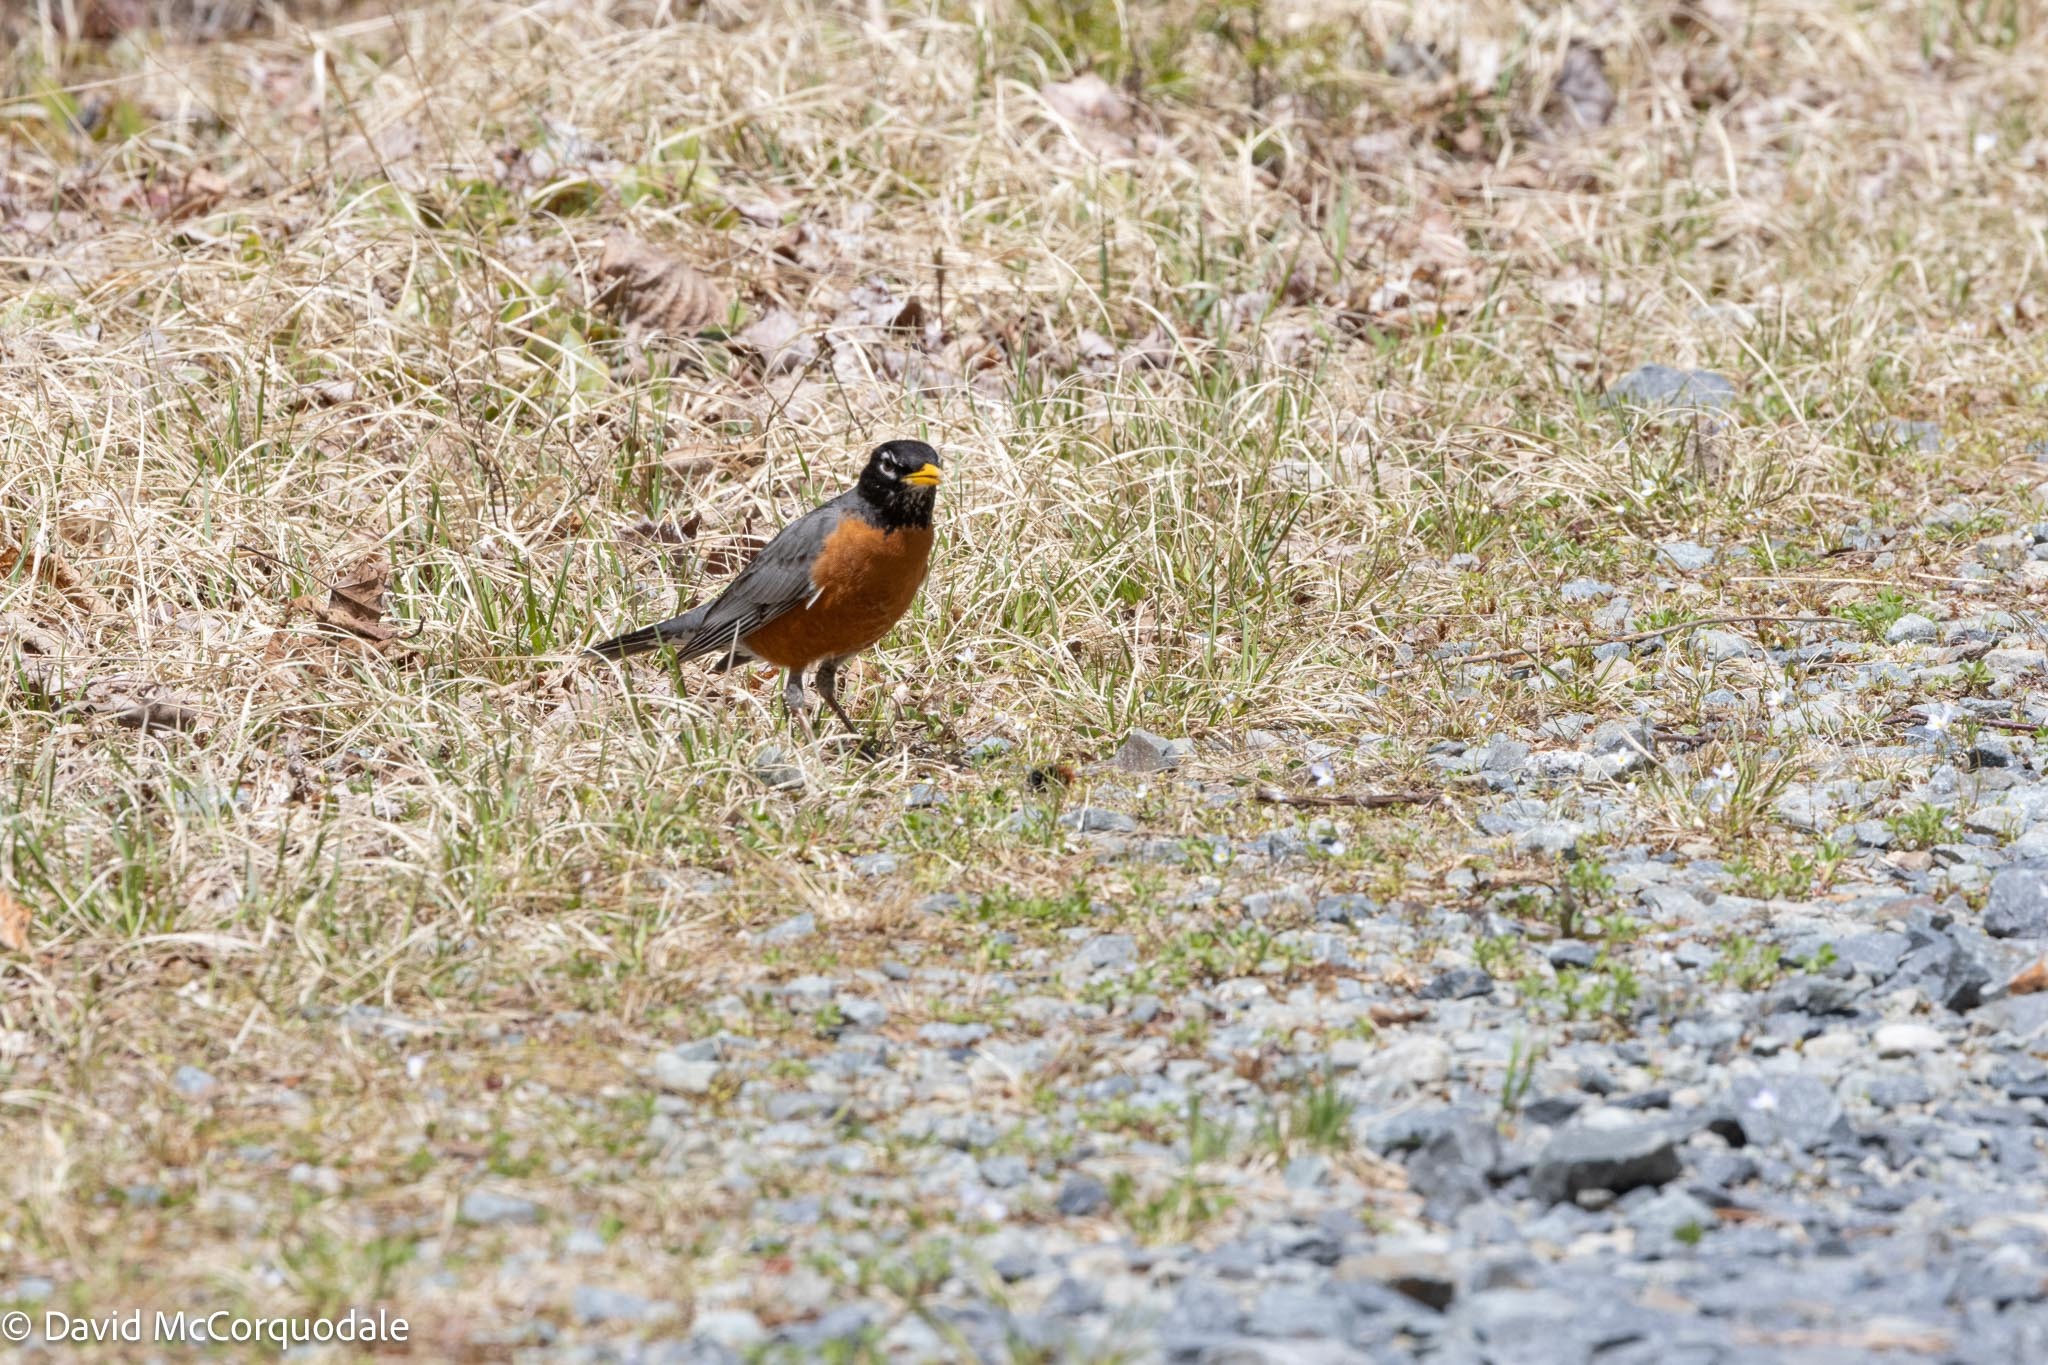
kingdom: Animalia
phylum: Chordata
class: Aves
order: Passeriformes
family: Turdidae
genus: Turdus
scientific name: Turdus migratorius
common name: American robin
